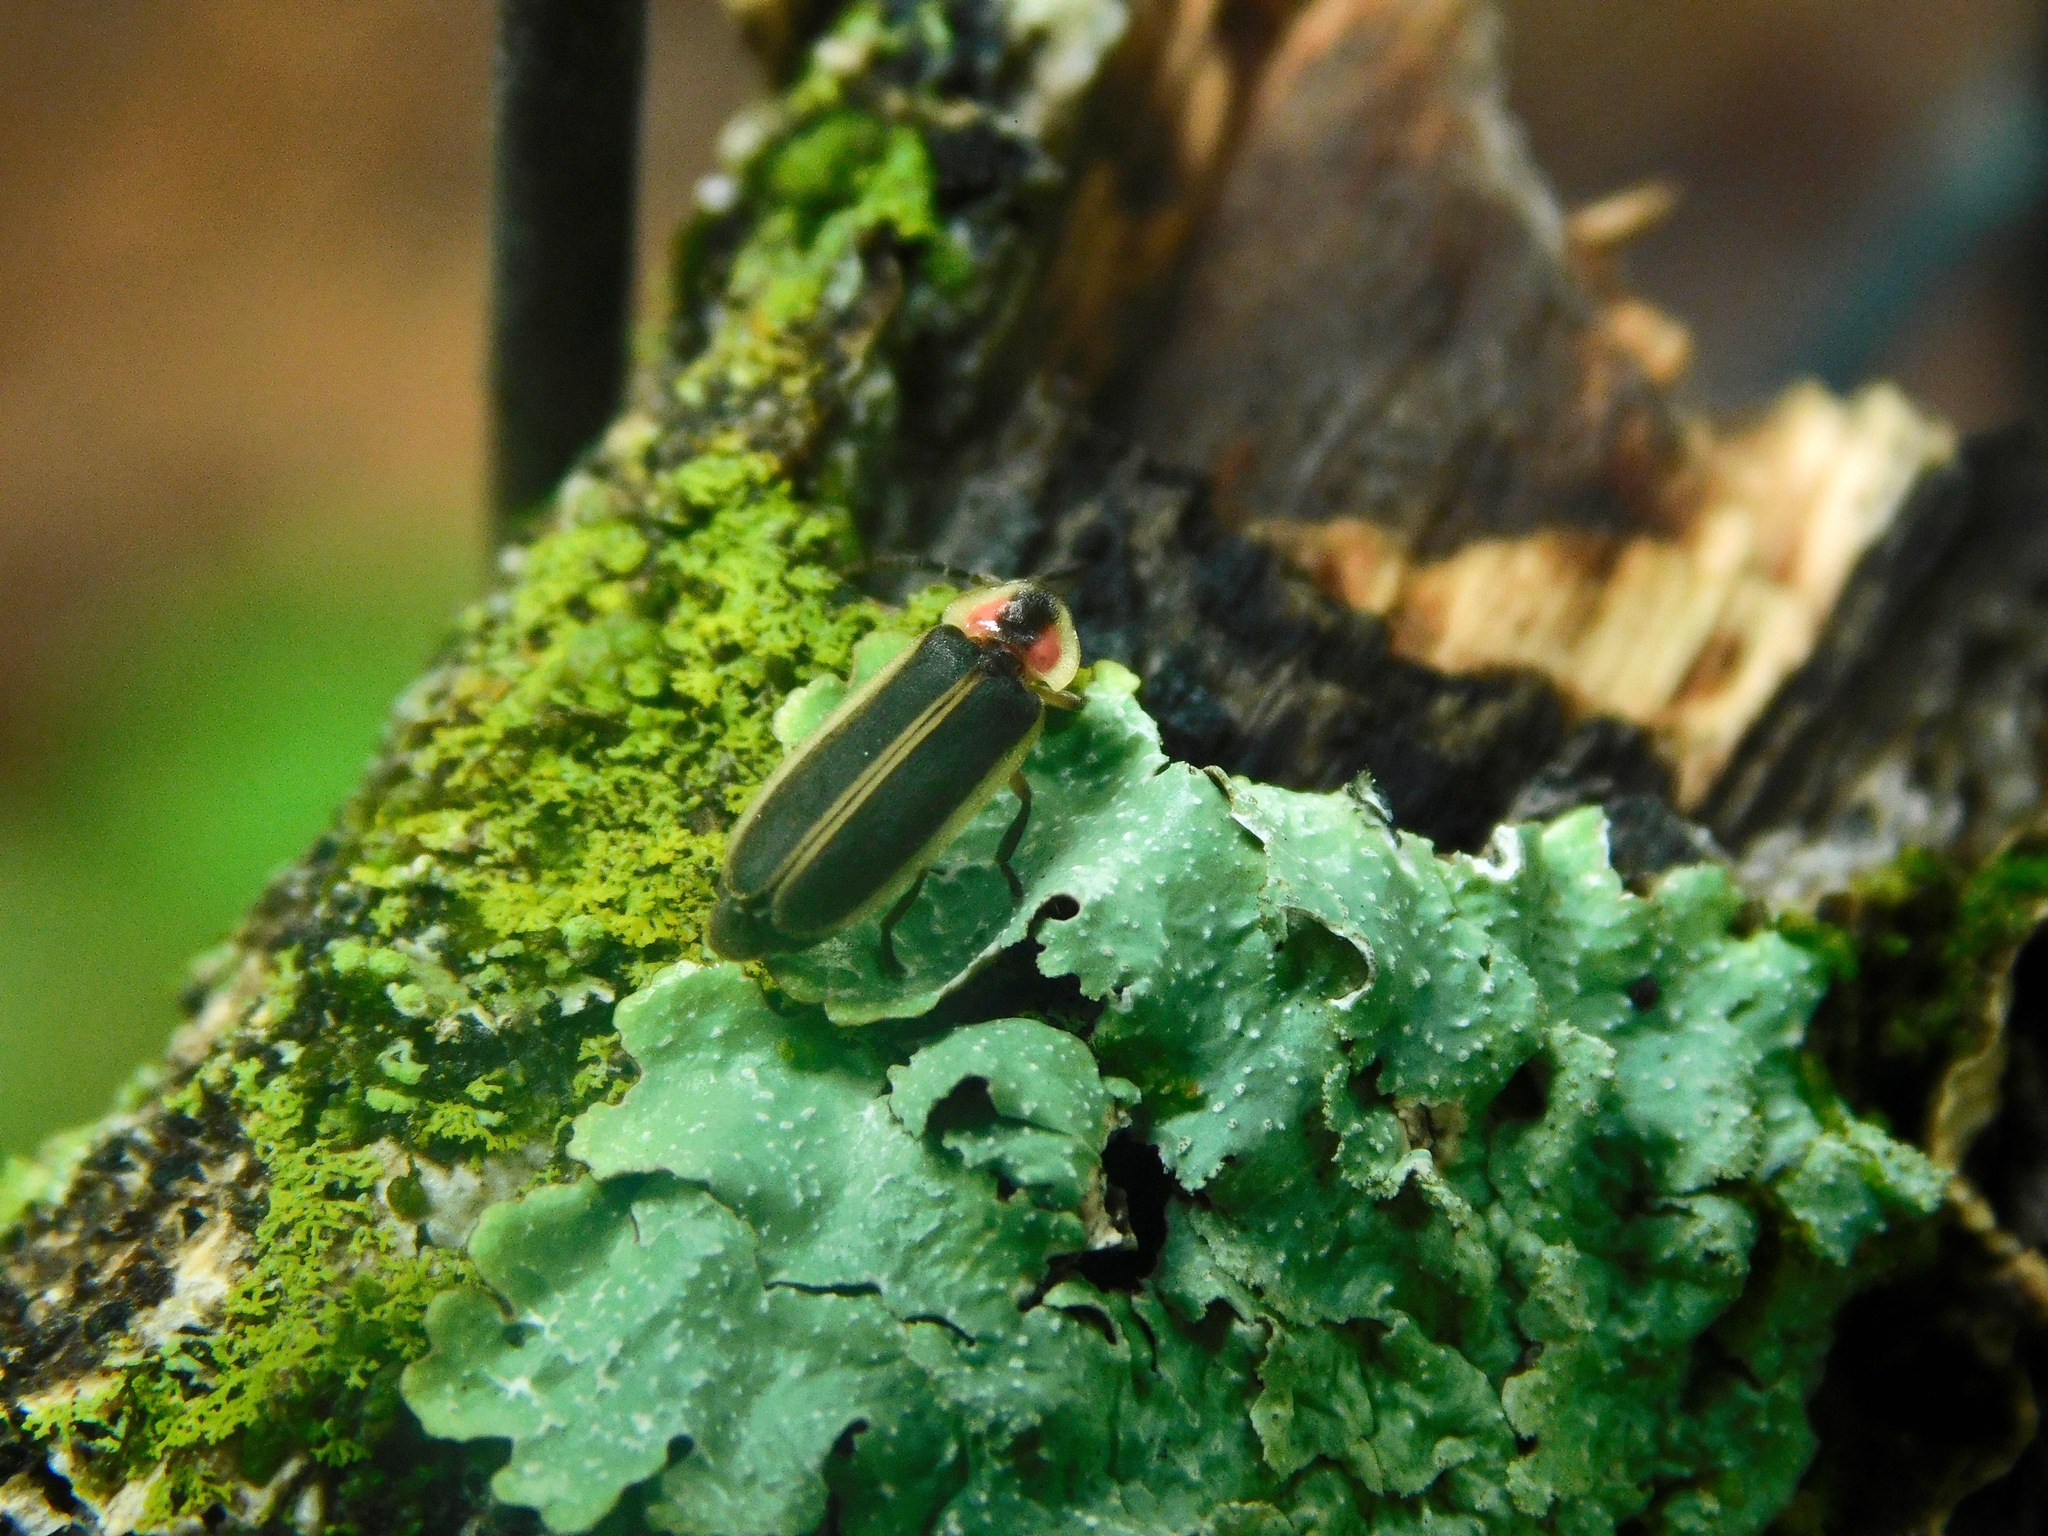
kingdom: Animalia
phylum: Arthropoda
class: Insecta
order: Coleoptera
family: Lampyridae
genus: Photinus
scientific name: Photinus consanguineus
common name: Consanguineous firefly
